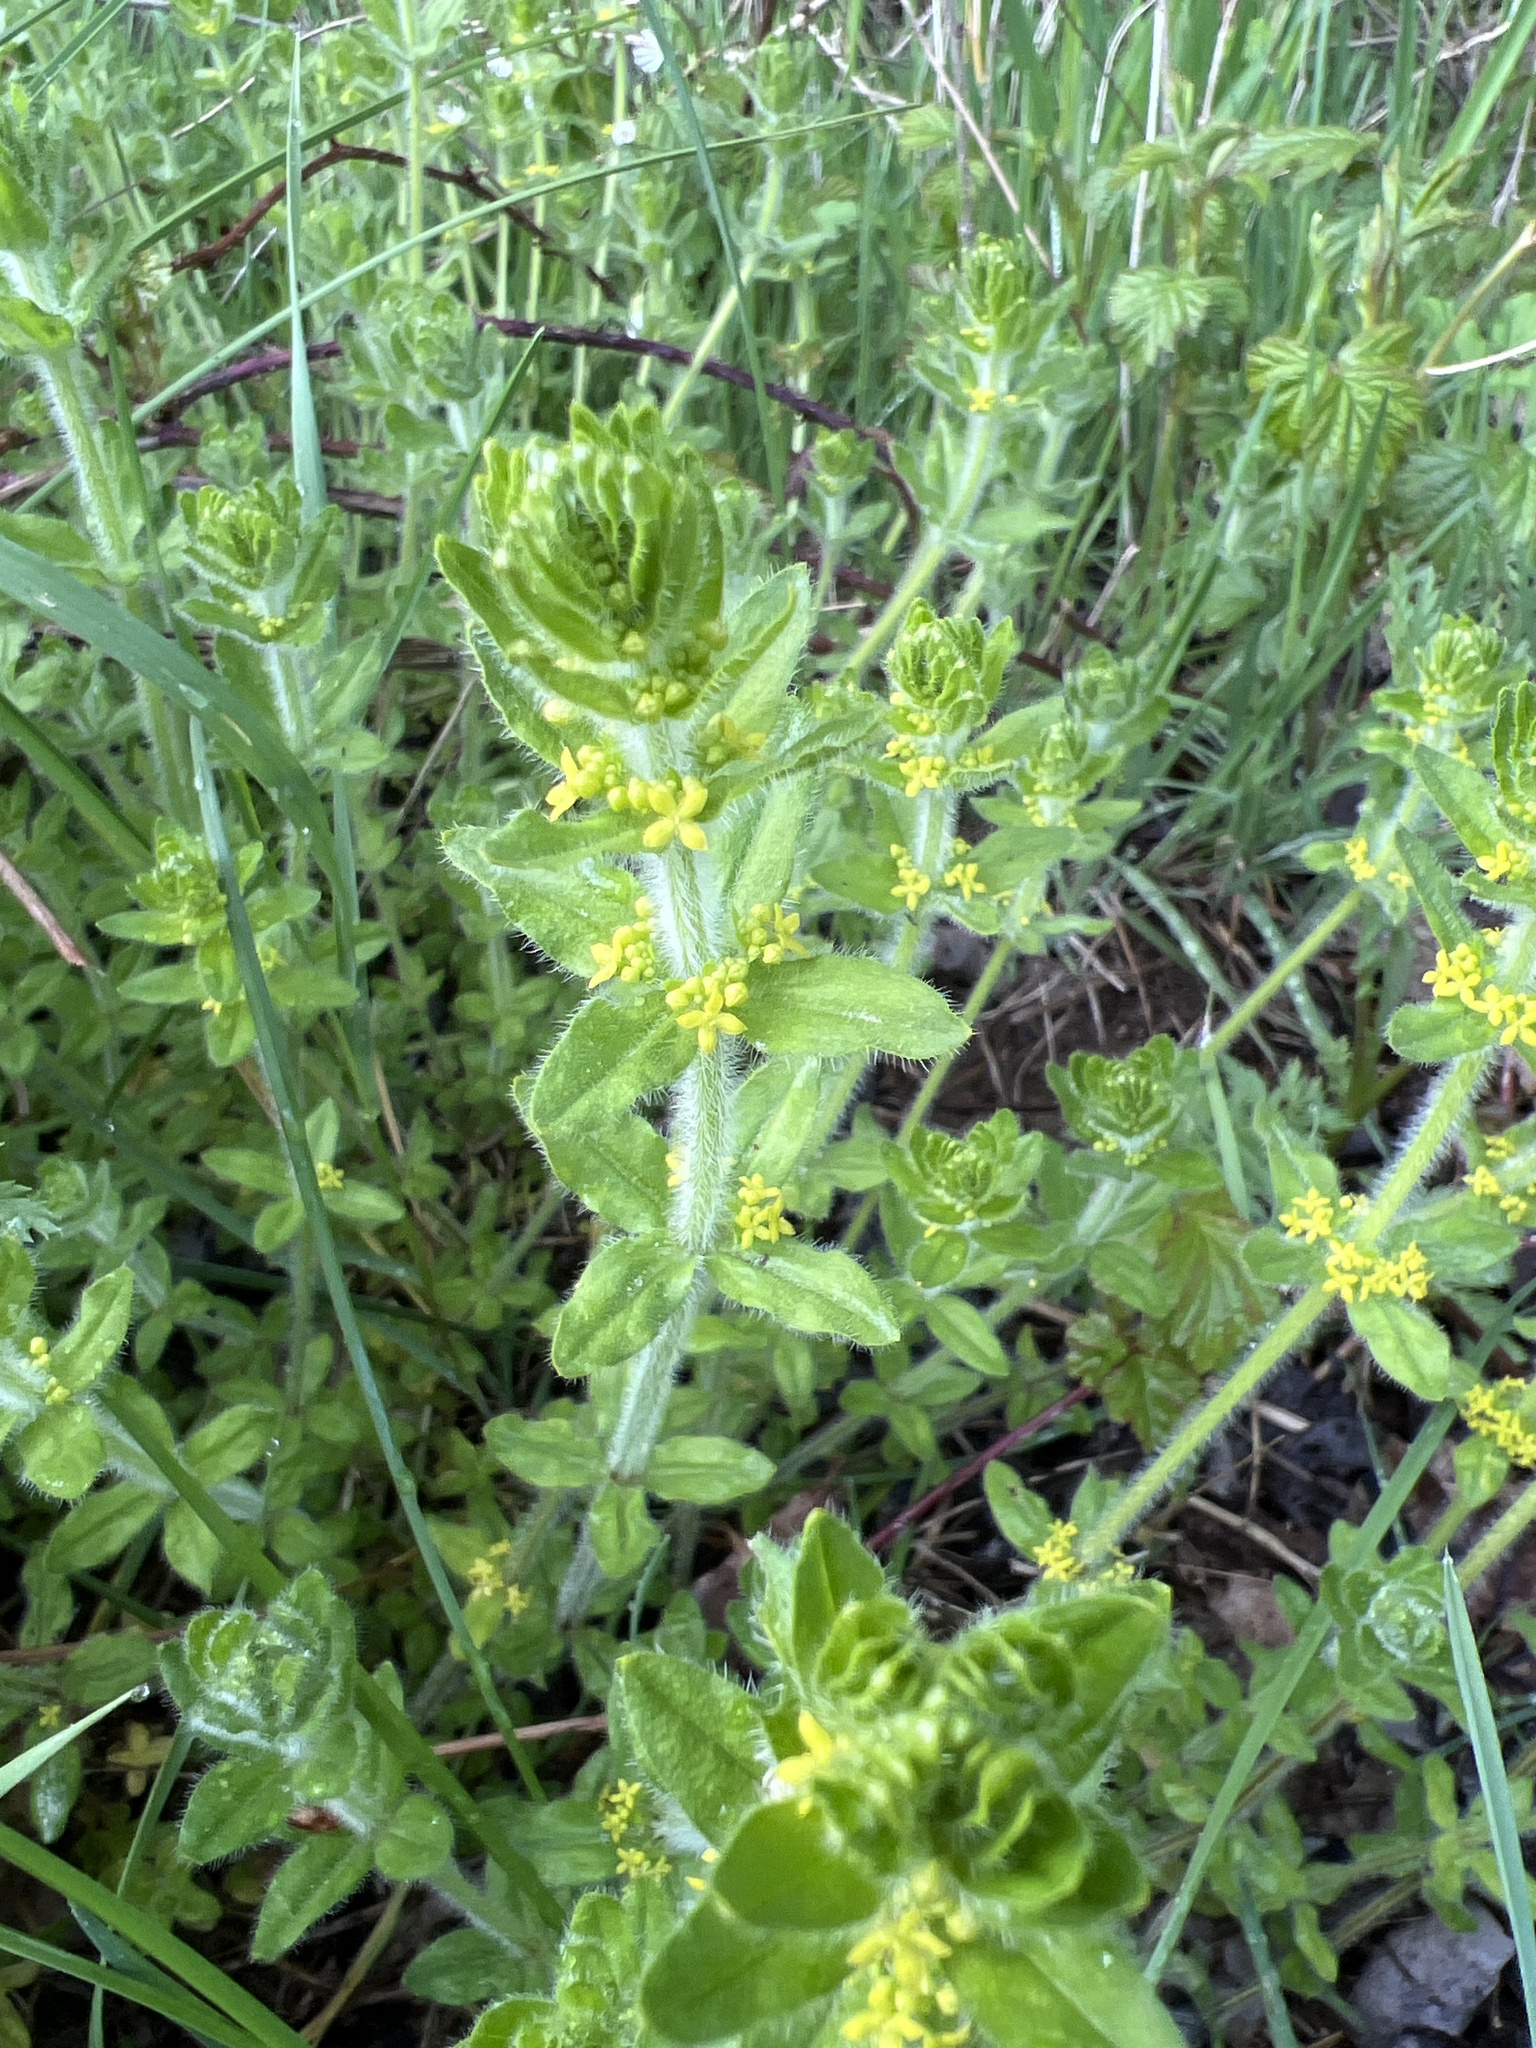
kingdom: Plantae
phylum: Tracheophyta
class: Magnoliopsida
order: Gentianales
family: Rubiaceae
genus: Cruciata
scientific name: Cruciata laevipes
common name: Crosswort
